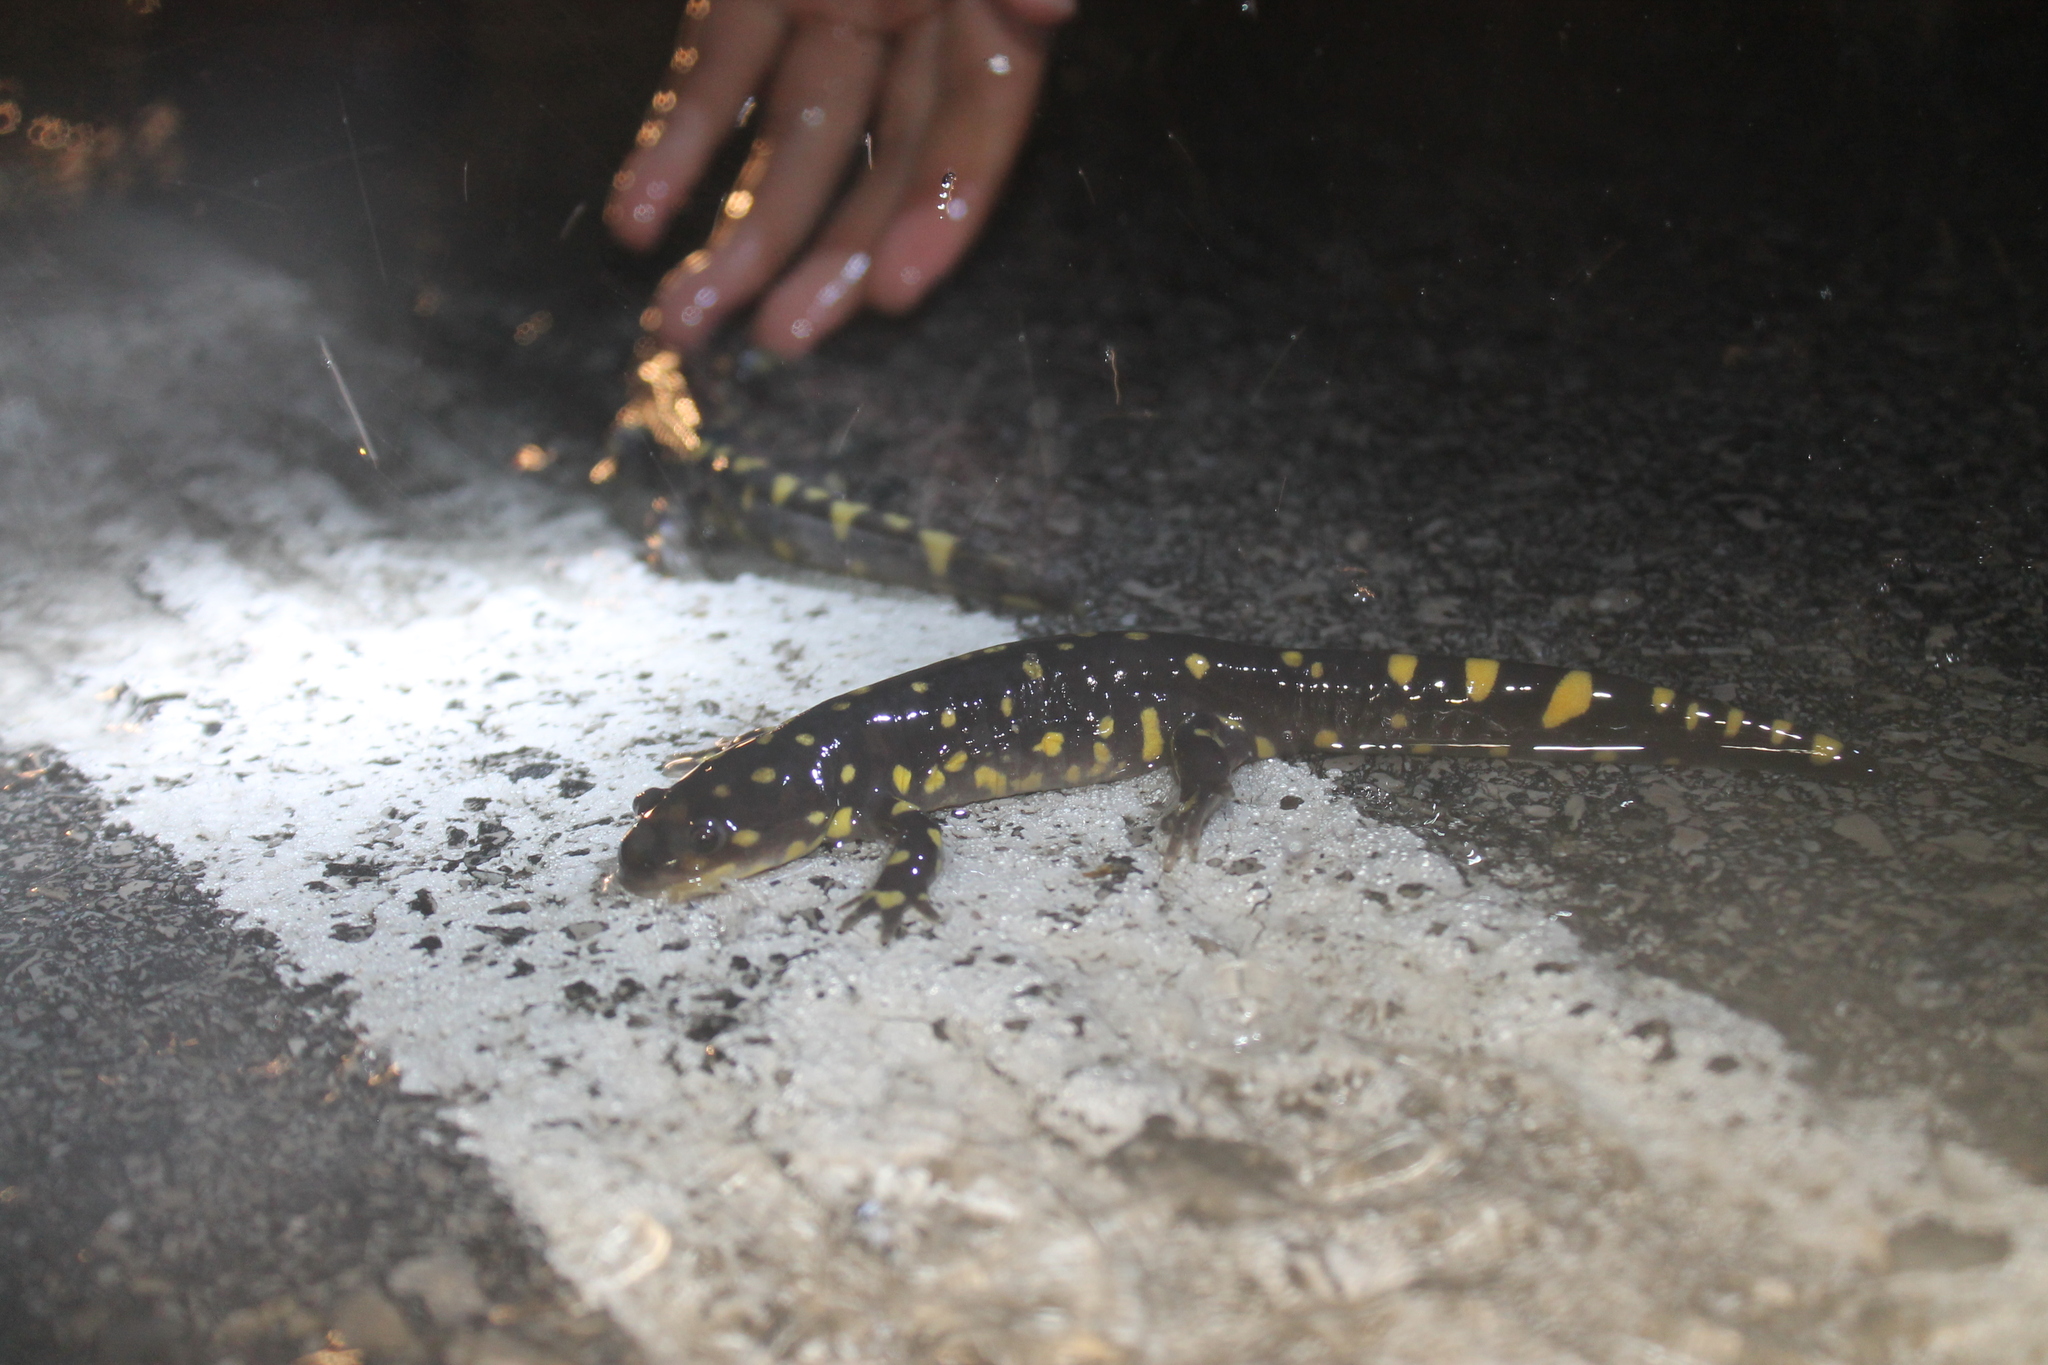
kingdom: Animalia
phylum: Chordata
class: Amphibia
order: Caudata
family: Ambystomatidae
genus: Ambystoma
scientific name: Ambystoma tigrinum
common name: Tiger salamander
